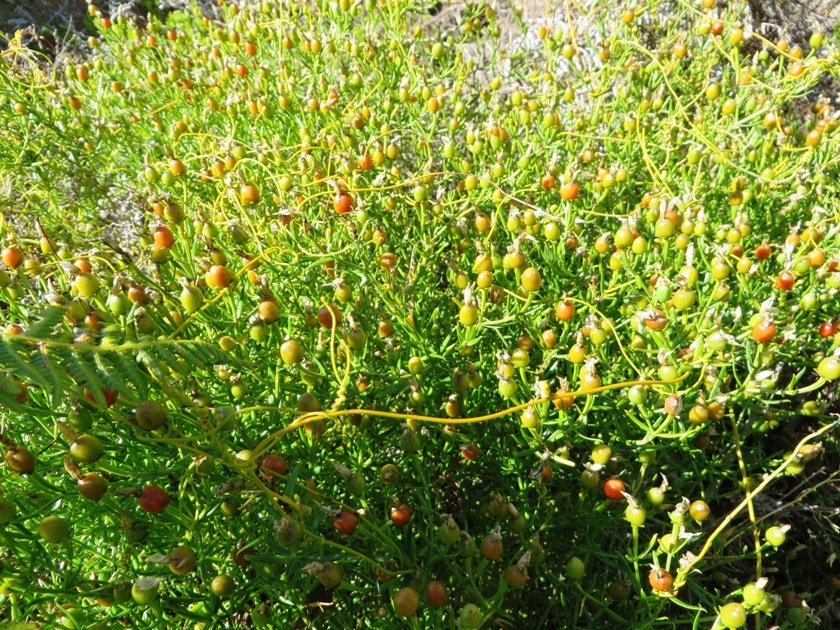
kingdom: Plantae
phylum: Tracheophyta
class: Magnoliopsida
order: Gentianales
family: Gentianaceae
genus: Chironia
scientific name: Chironia baccifera
